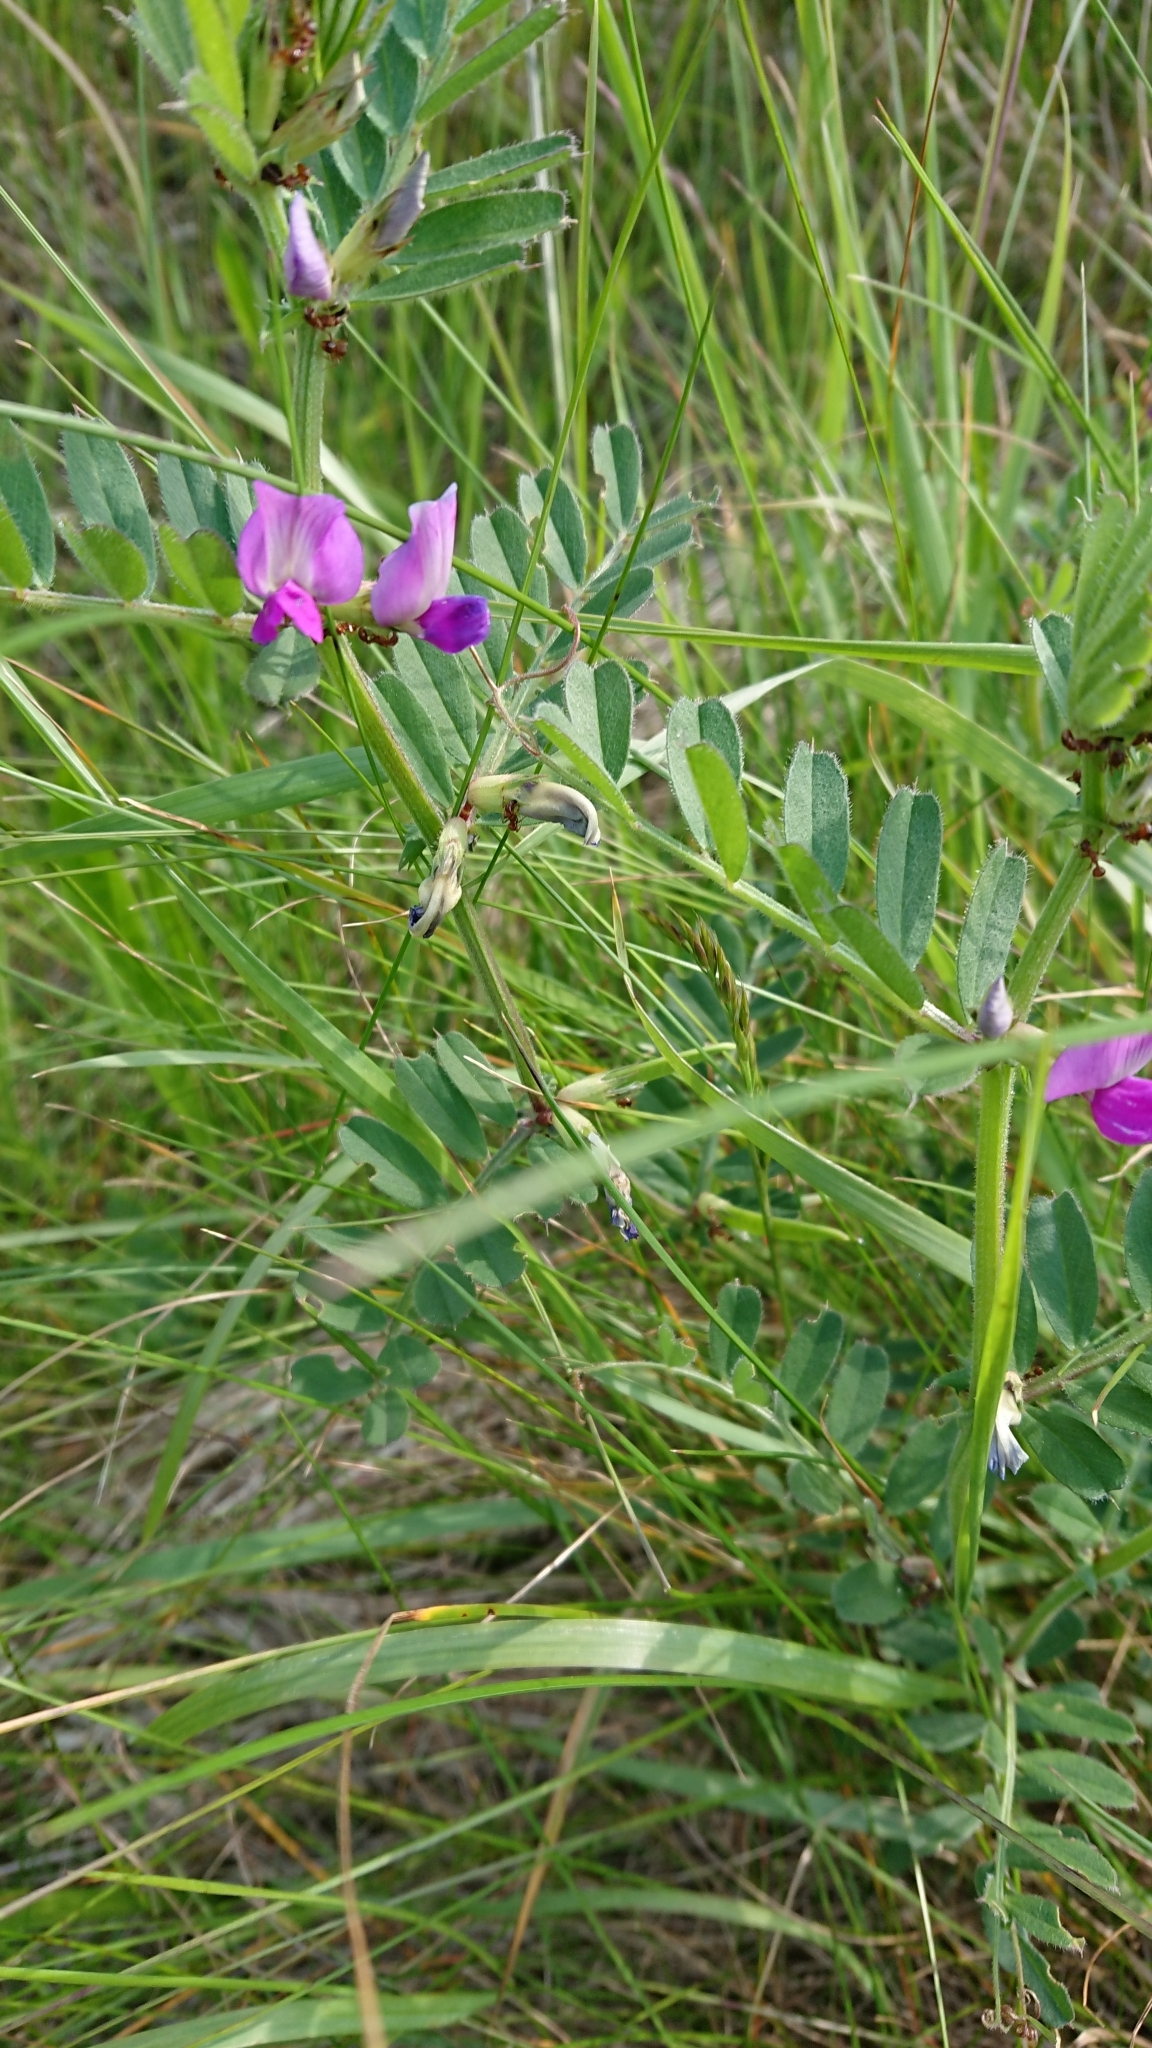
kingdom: Plantae
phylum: Tracheophyta
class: Magnoliopsida
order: Fabales
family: Fabaceae
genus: Vicia
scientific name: Vicia sativa
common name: Garden vetch
